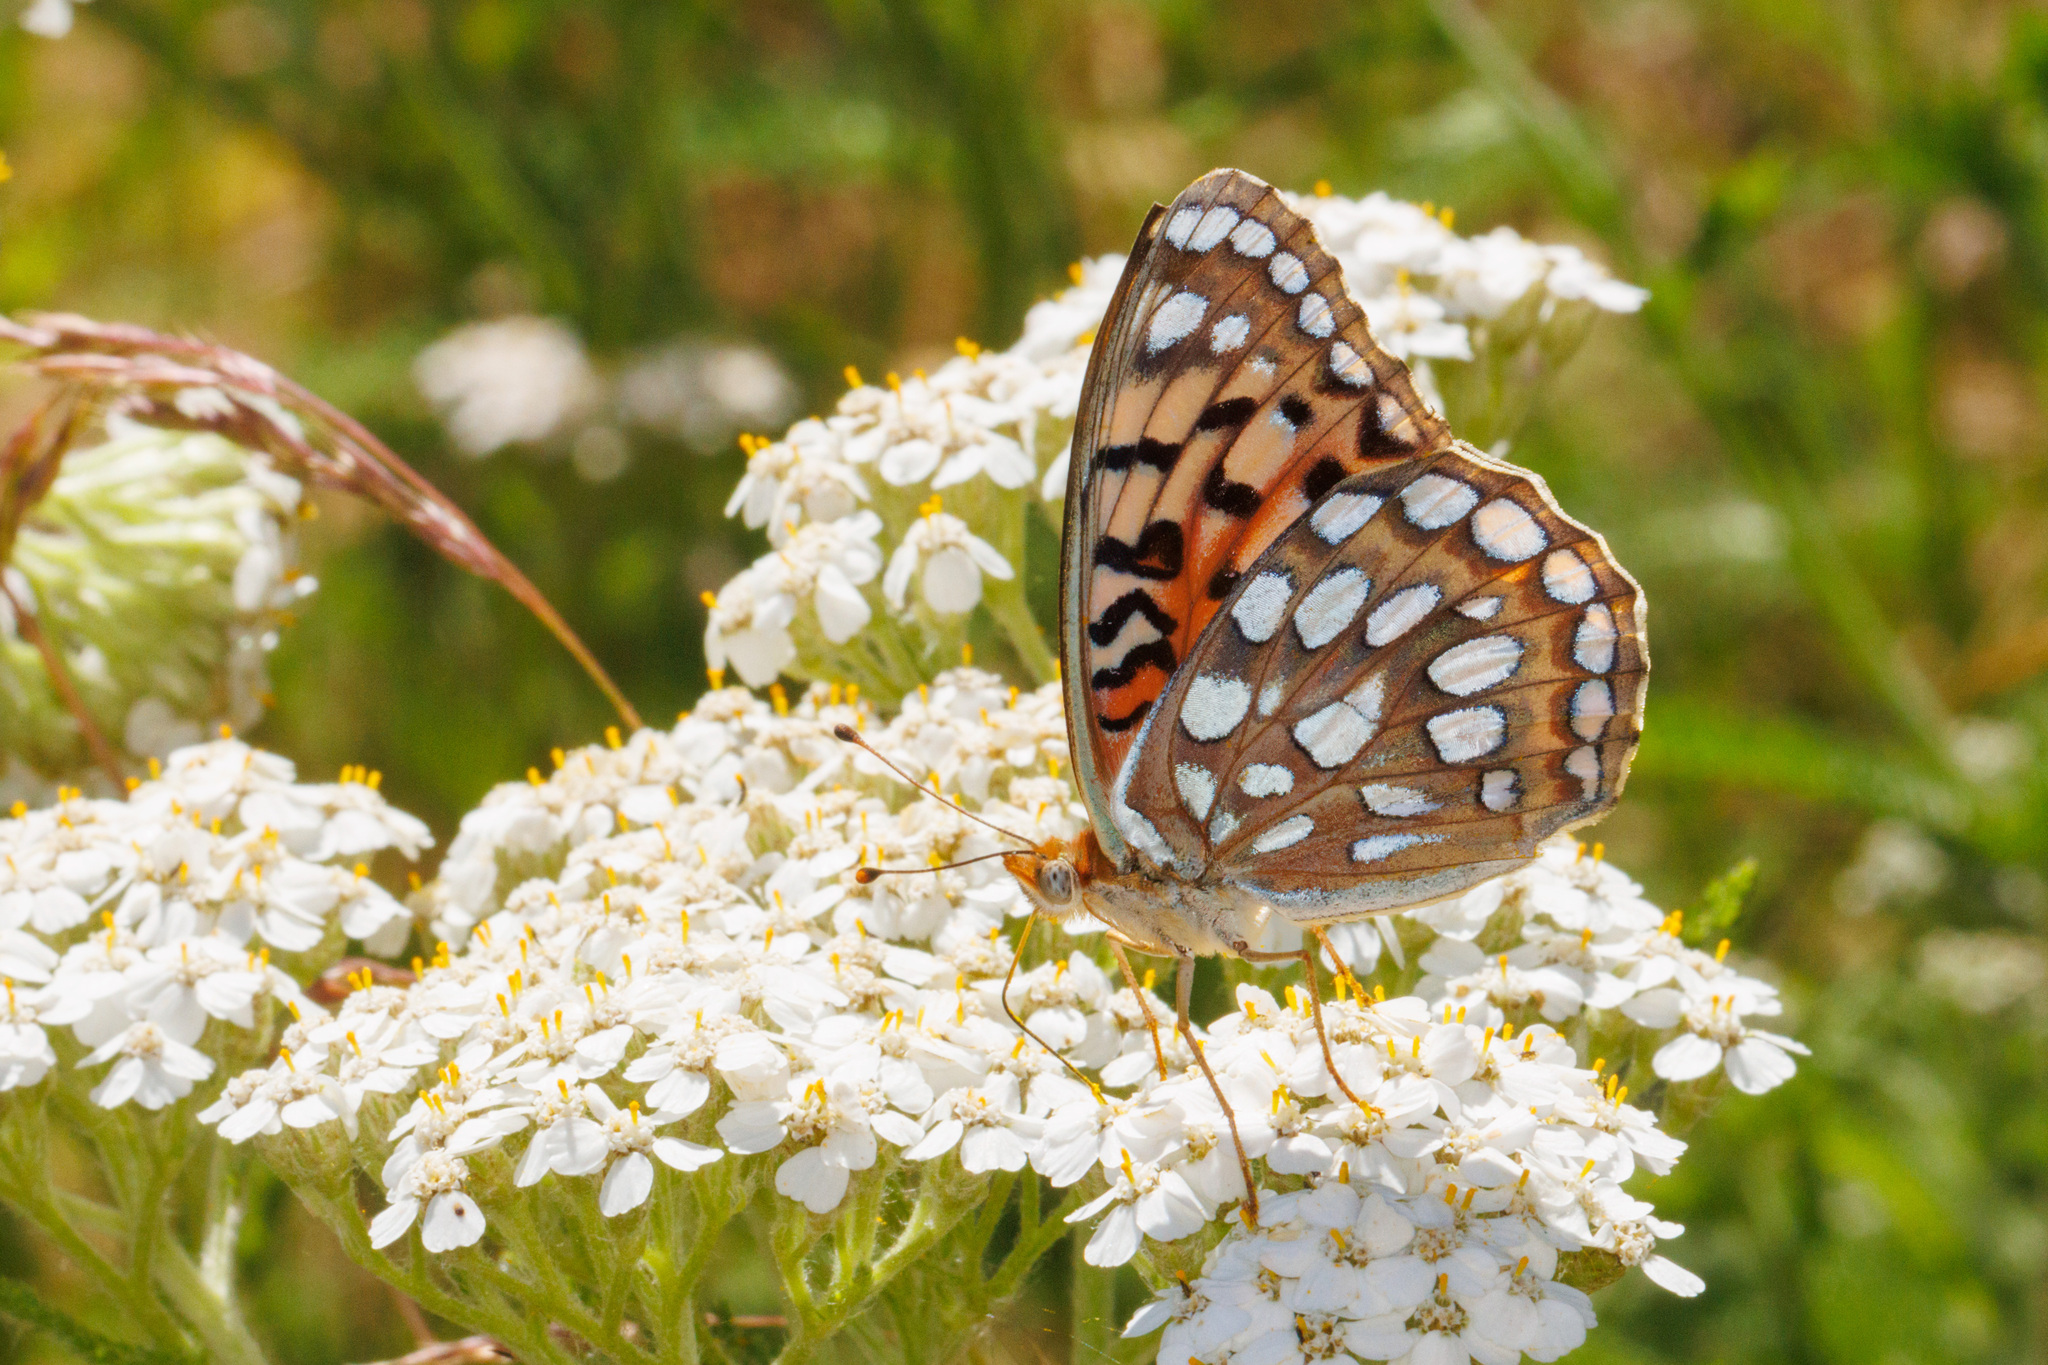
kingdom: Animalia
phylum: Arthropoda
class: Insecta
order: Lepidoptera
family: Nymphalidae
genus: Argynnis
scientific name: Argynnis coronis
